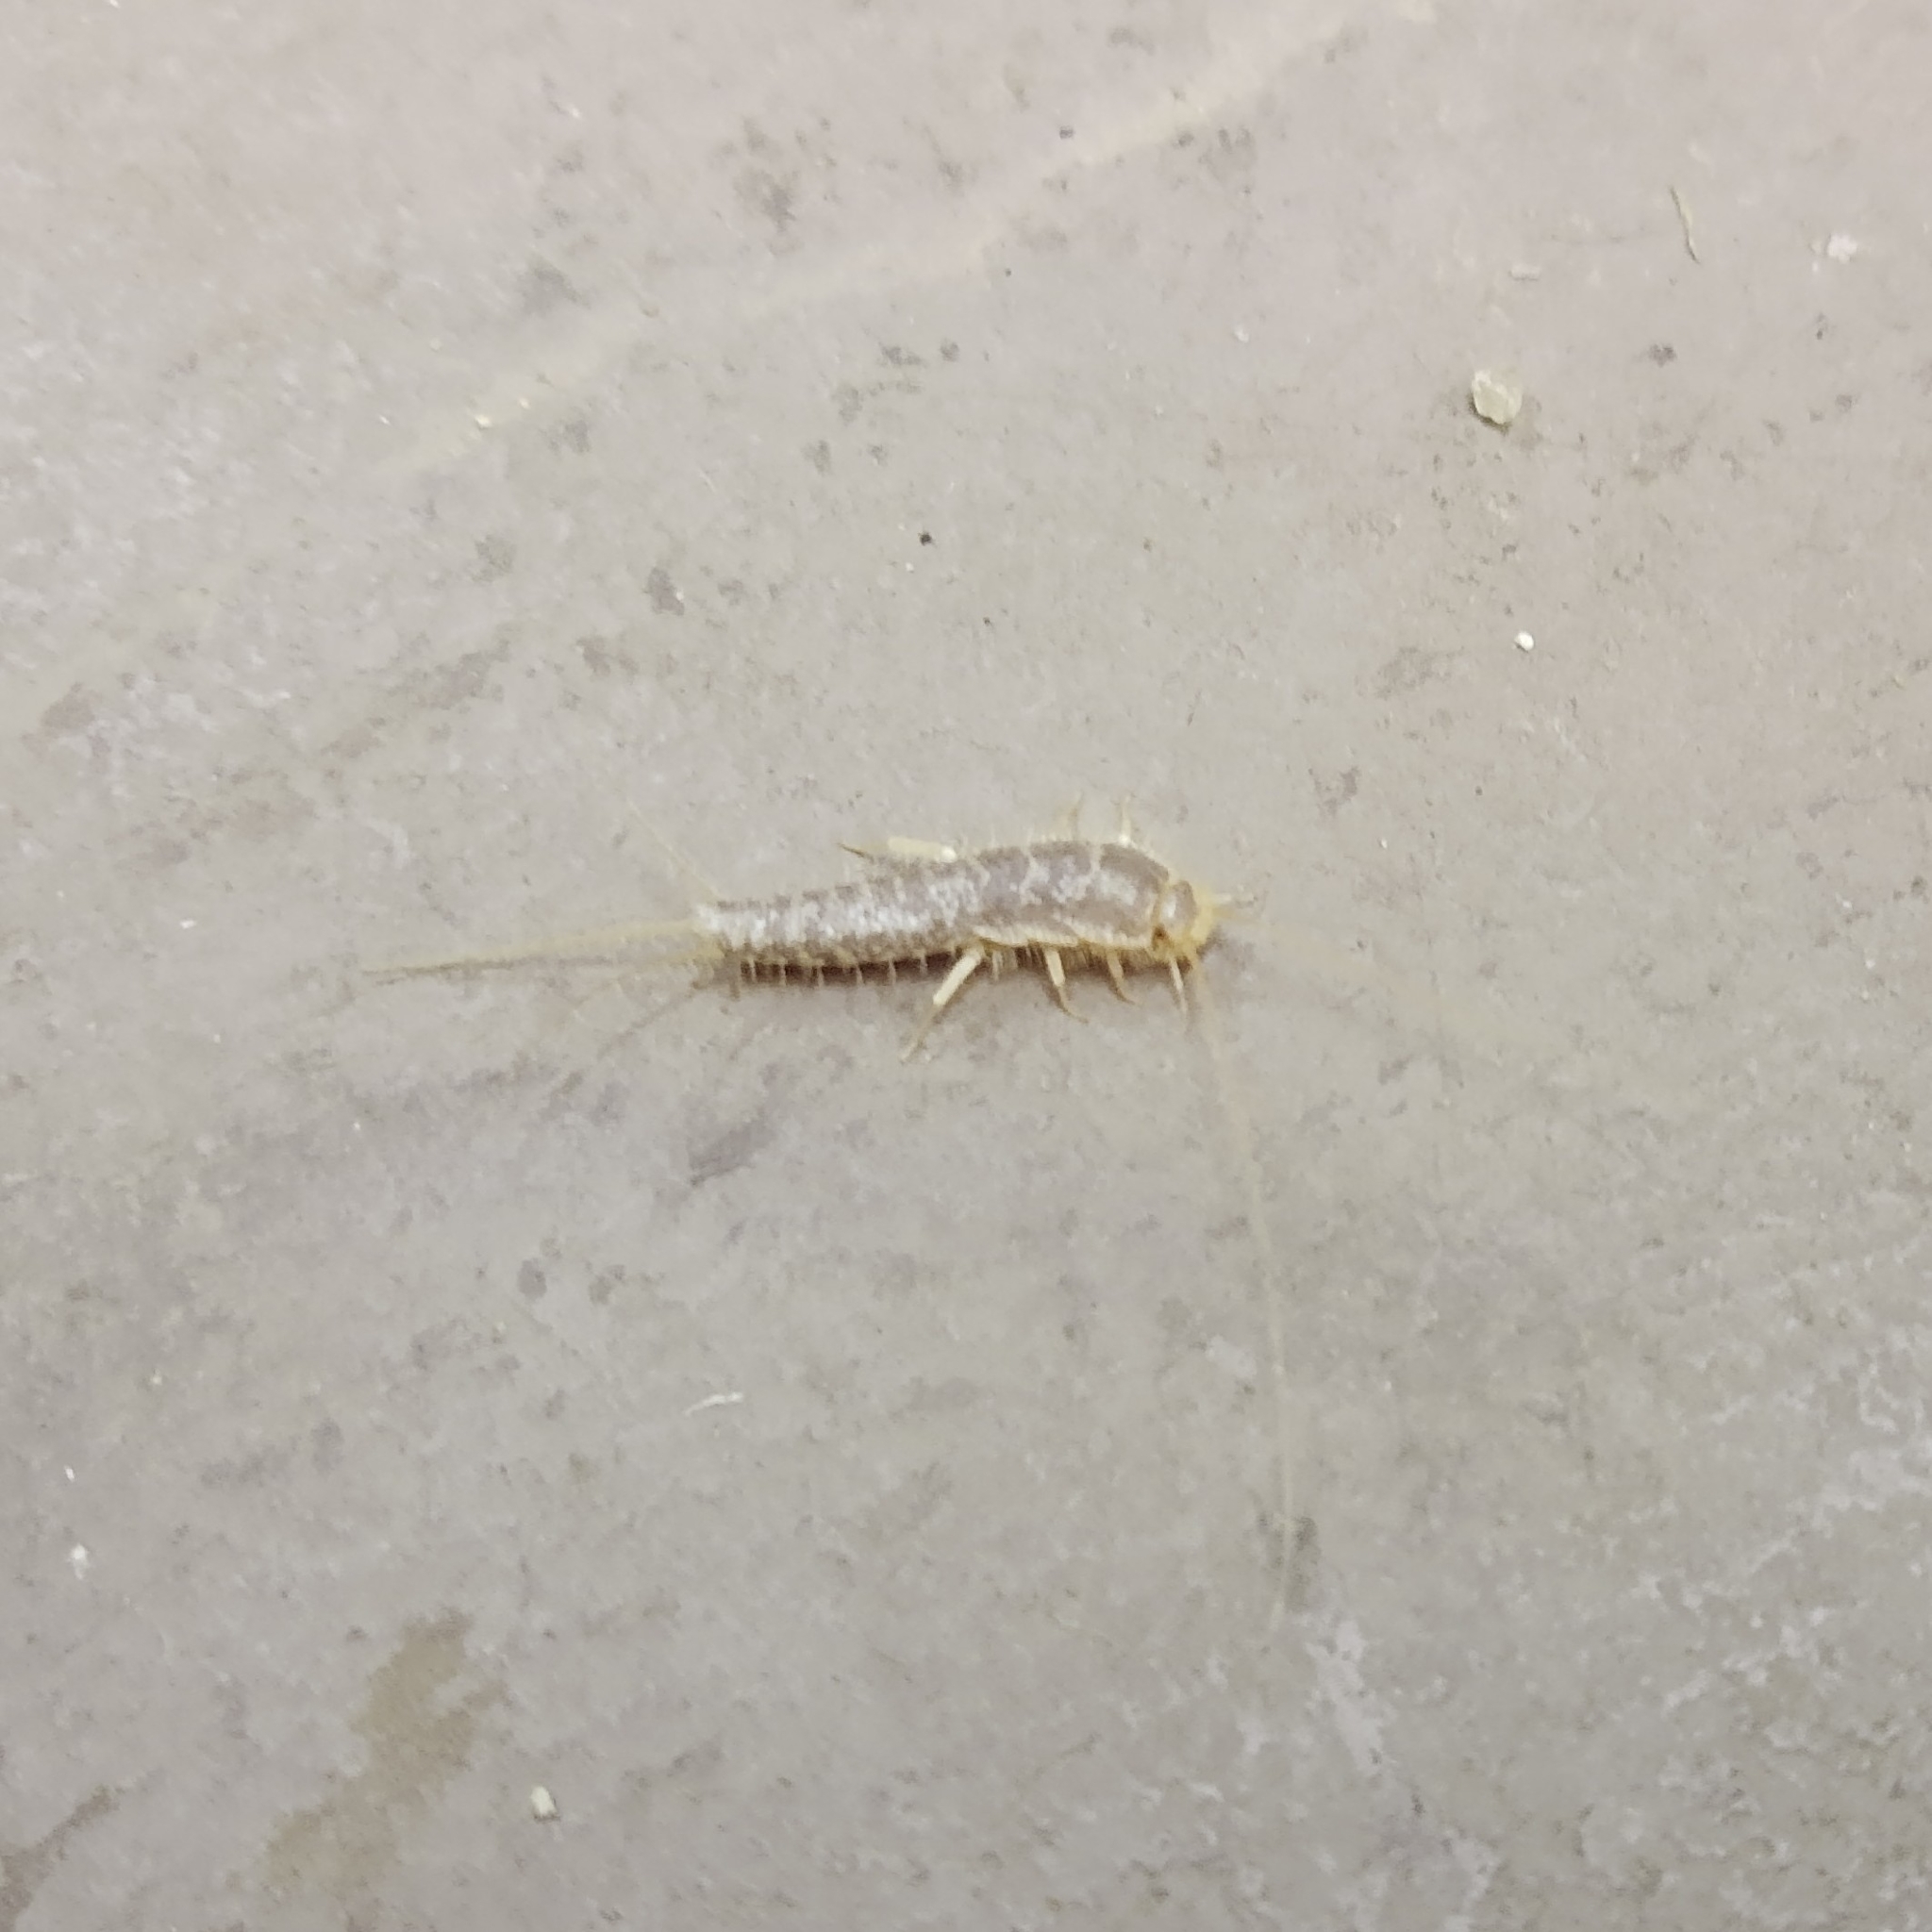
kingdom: Animalia
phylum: Arthropoda
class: Insecta
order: Zygentoma
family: Lepismatidae
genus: Ctenolepisma
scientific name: Ctenolepisma longicaudatum
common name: Silverfish
